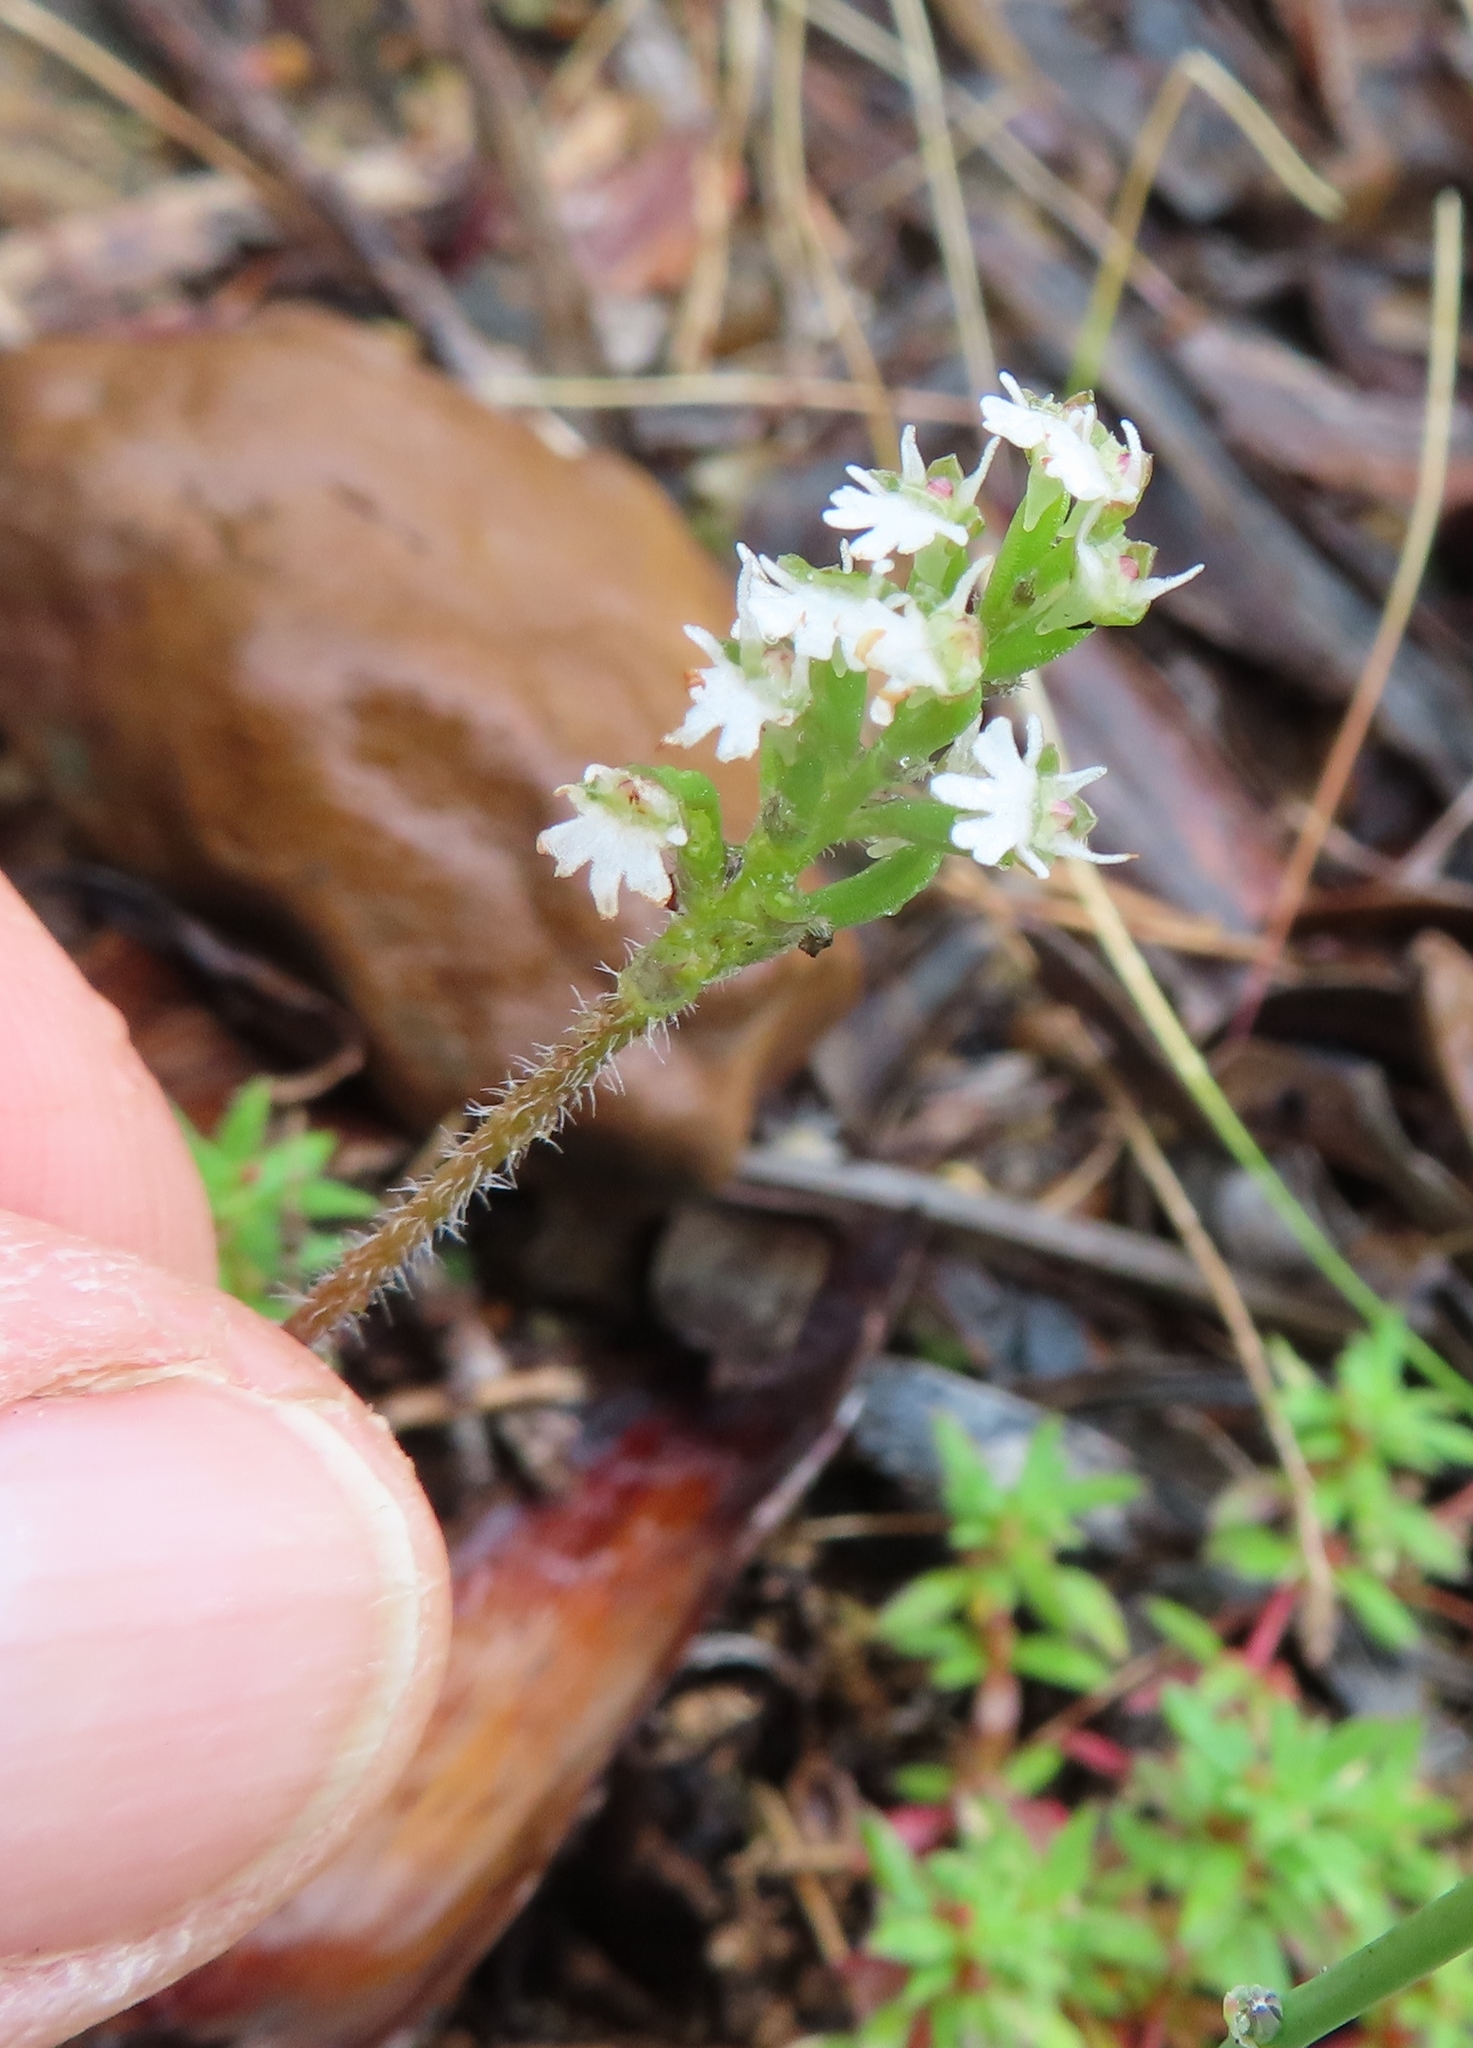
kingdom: Plantae
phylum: Tracheophyta
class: Liliopsida
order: Asparagales
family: Orchidaceae
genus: Holothrix
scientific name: Holothrix mundii
